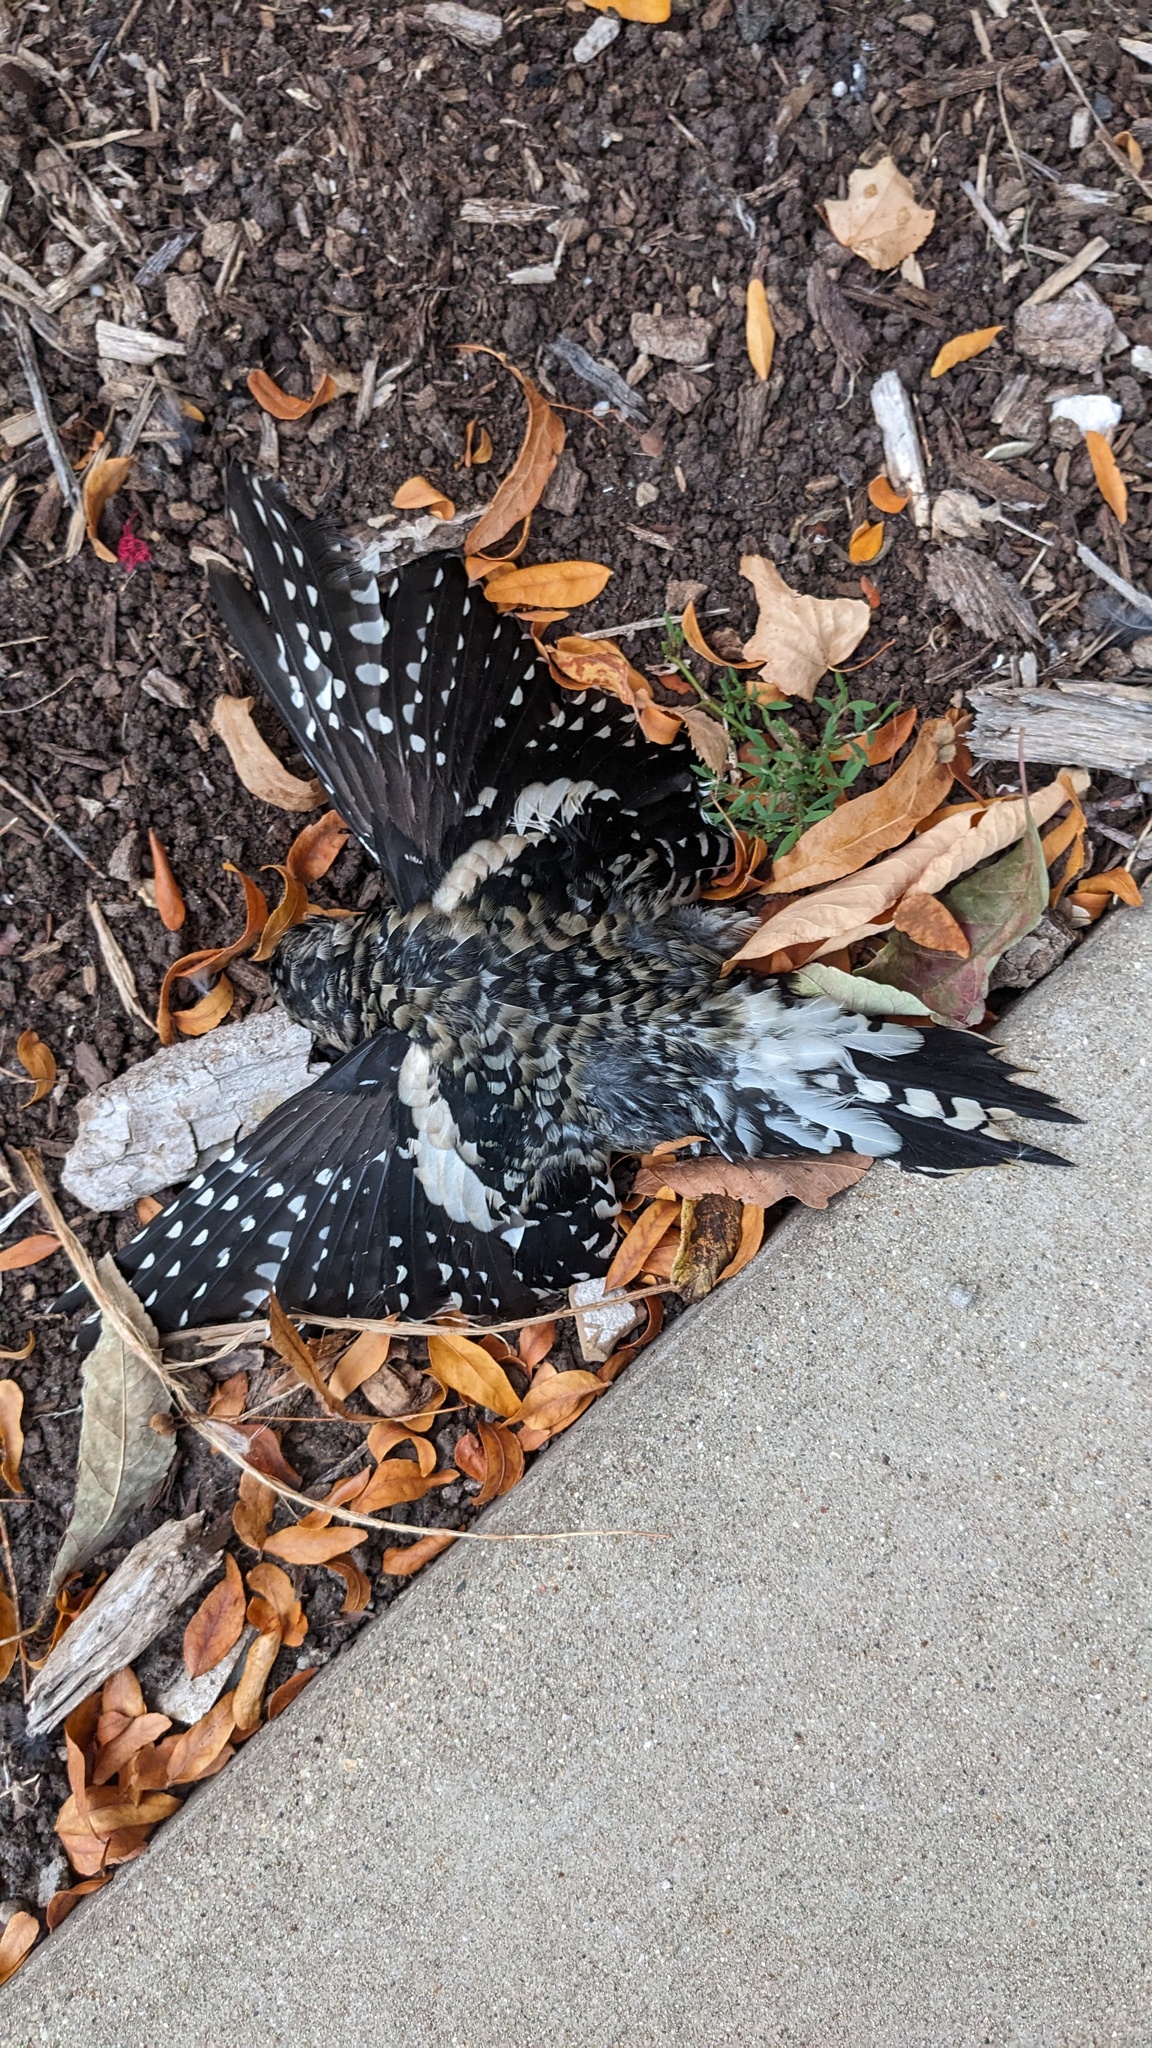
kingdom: Animalia
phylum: Chordata
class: Aves
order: Piciformes
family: Picidae
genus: Sphyrapicus
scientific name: Sphyrapicus varius
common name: Yellow-bellied sapsucker
